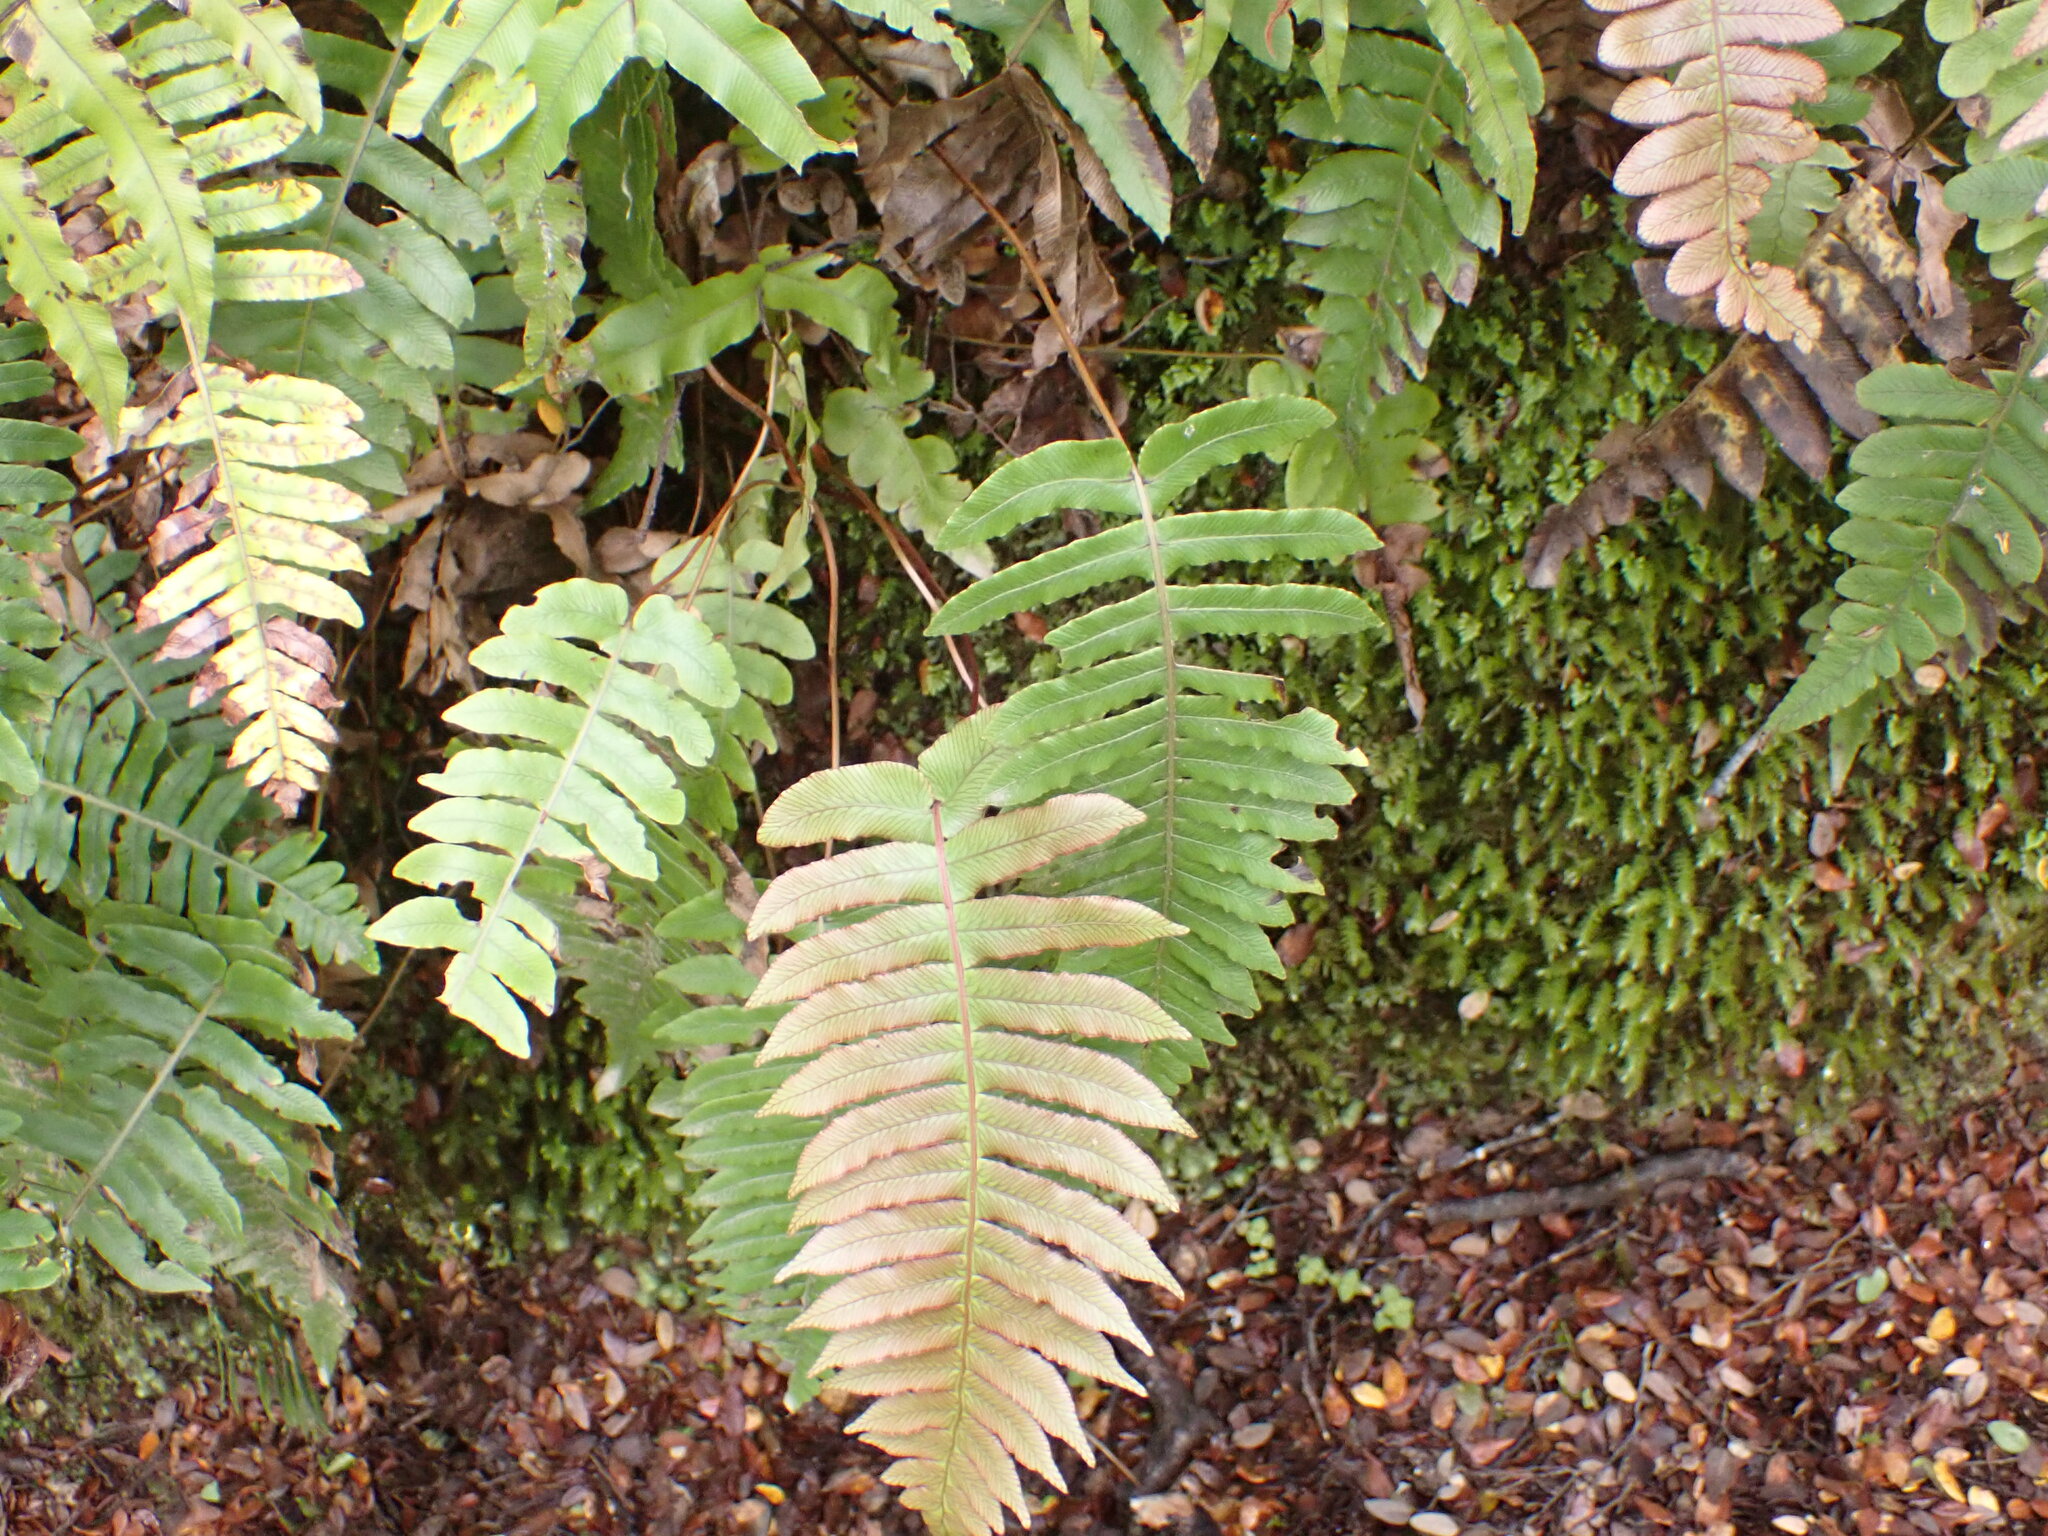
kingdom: Plantae
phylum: Tracheophyta
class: Polypodiopsida
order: Polypodiales
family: Blechnaceae
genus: Cranfillia
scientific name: Cranfillia deltoides
